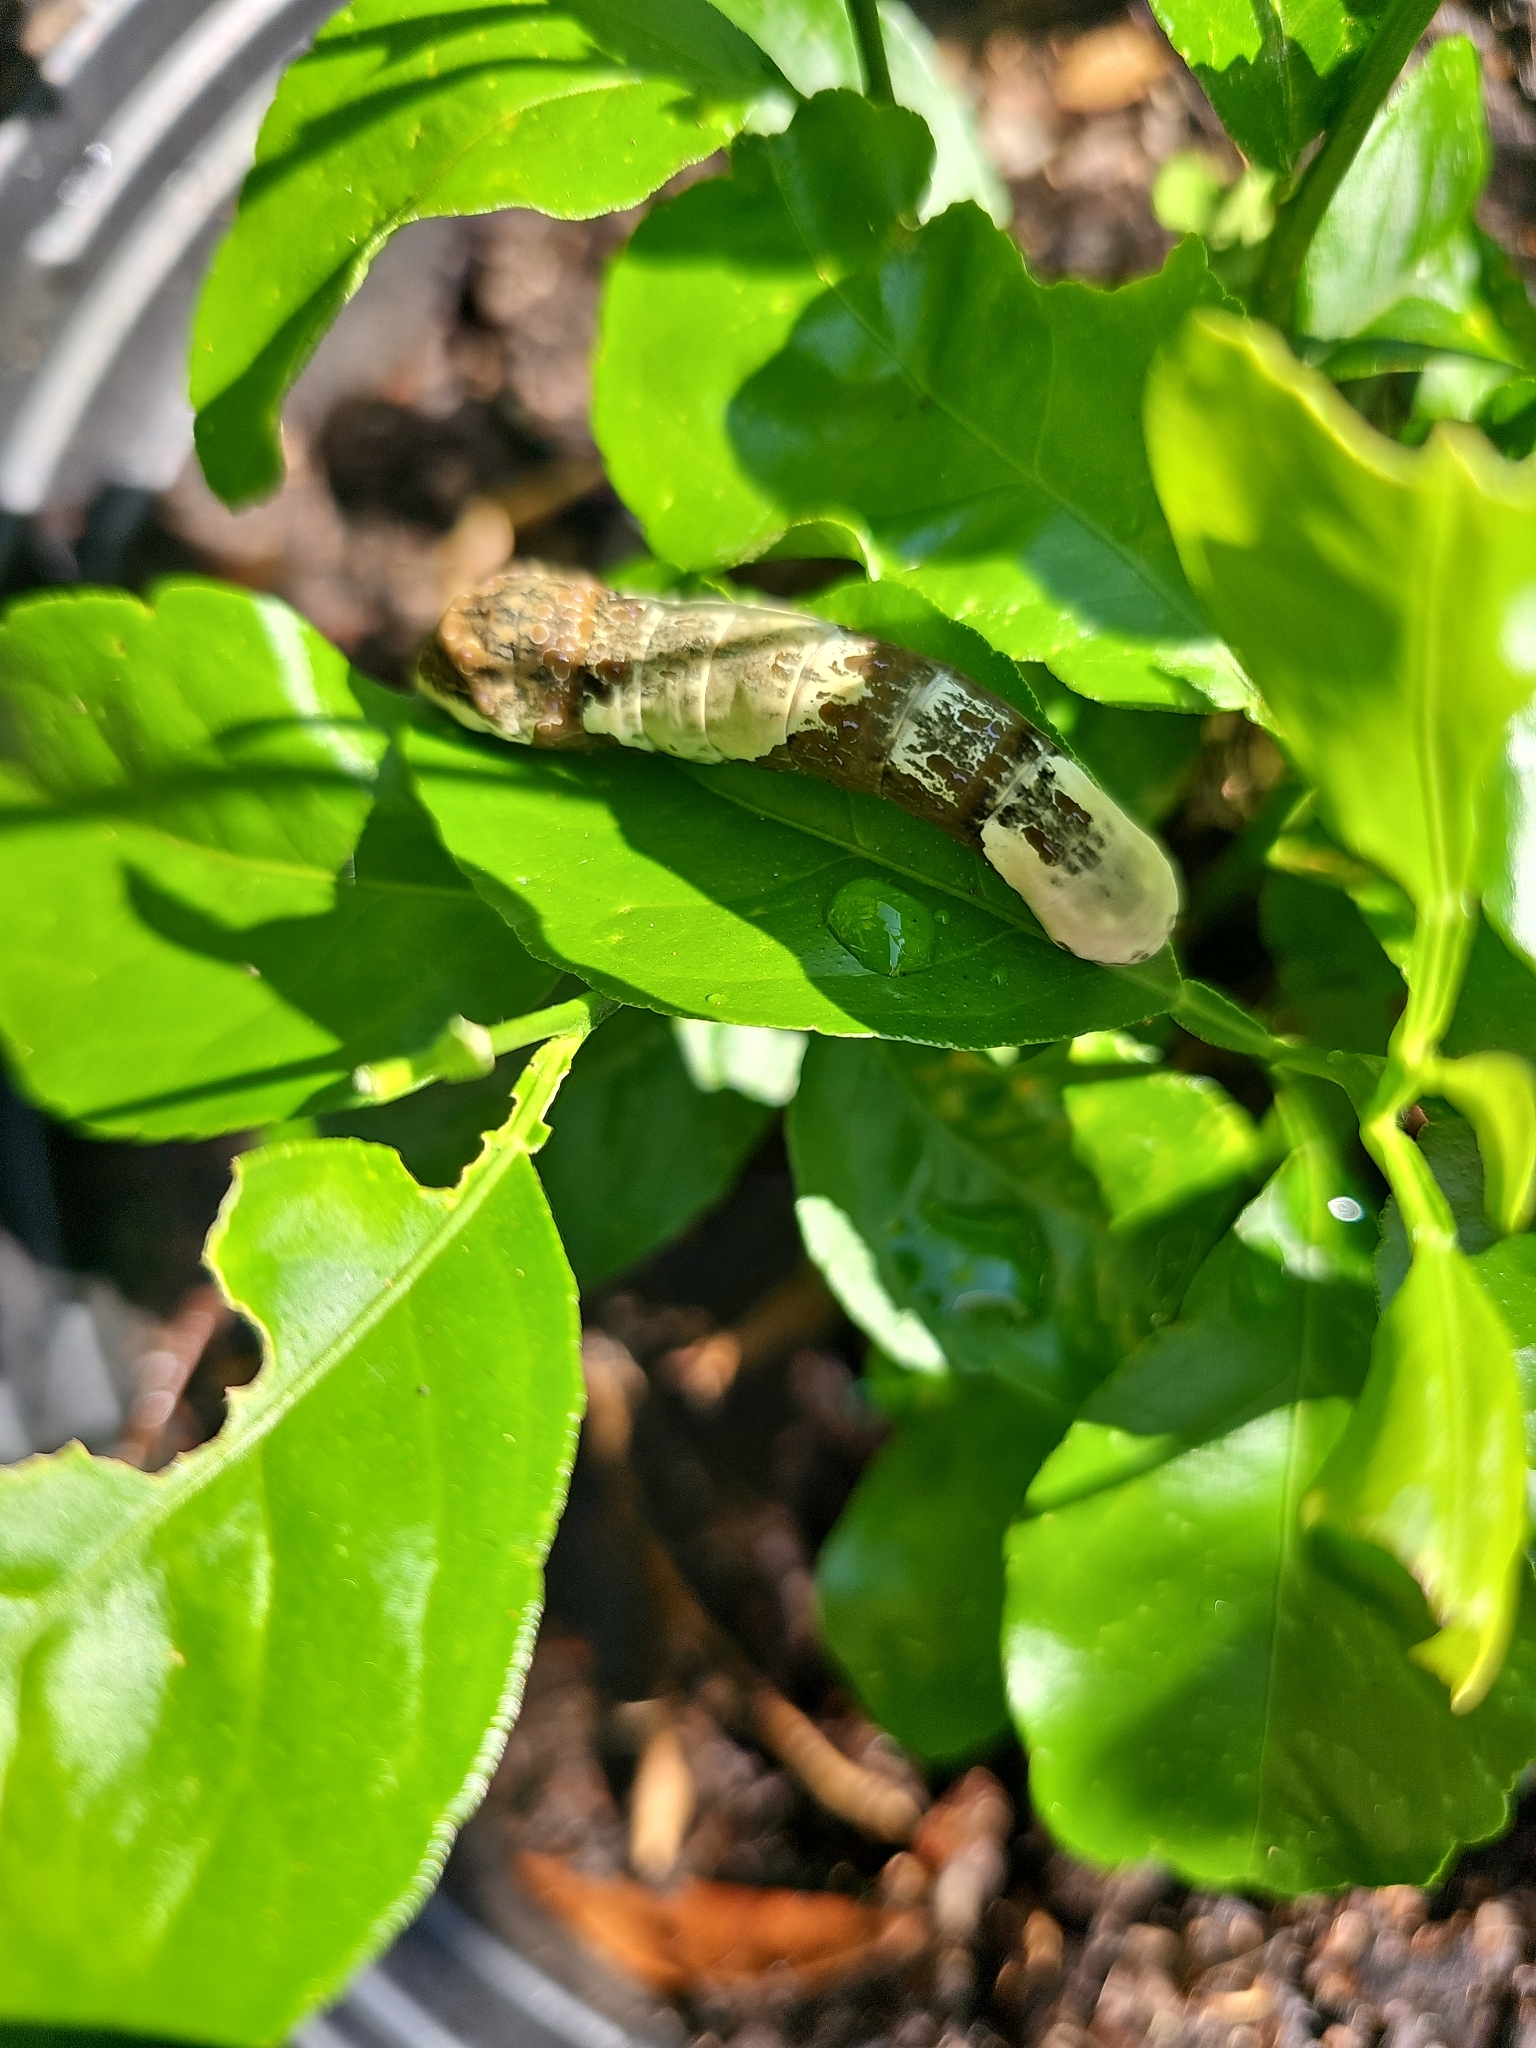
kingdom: Animalia
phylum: Arthropoda
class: Insecta
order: Lepidoptera
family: Papilionidae
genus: Papilio
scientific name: Papilio cresphontes
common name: Giant swallowtail
